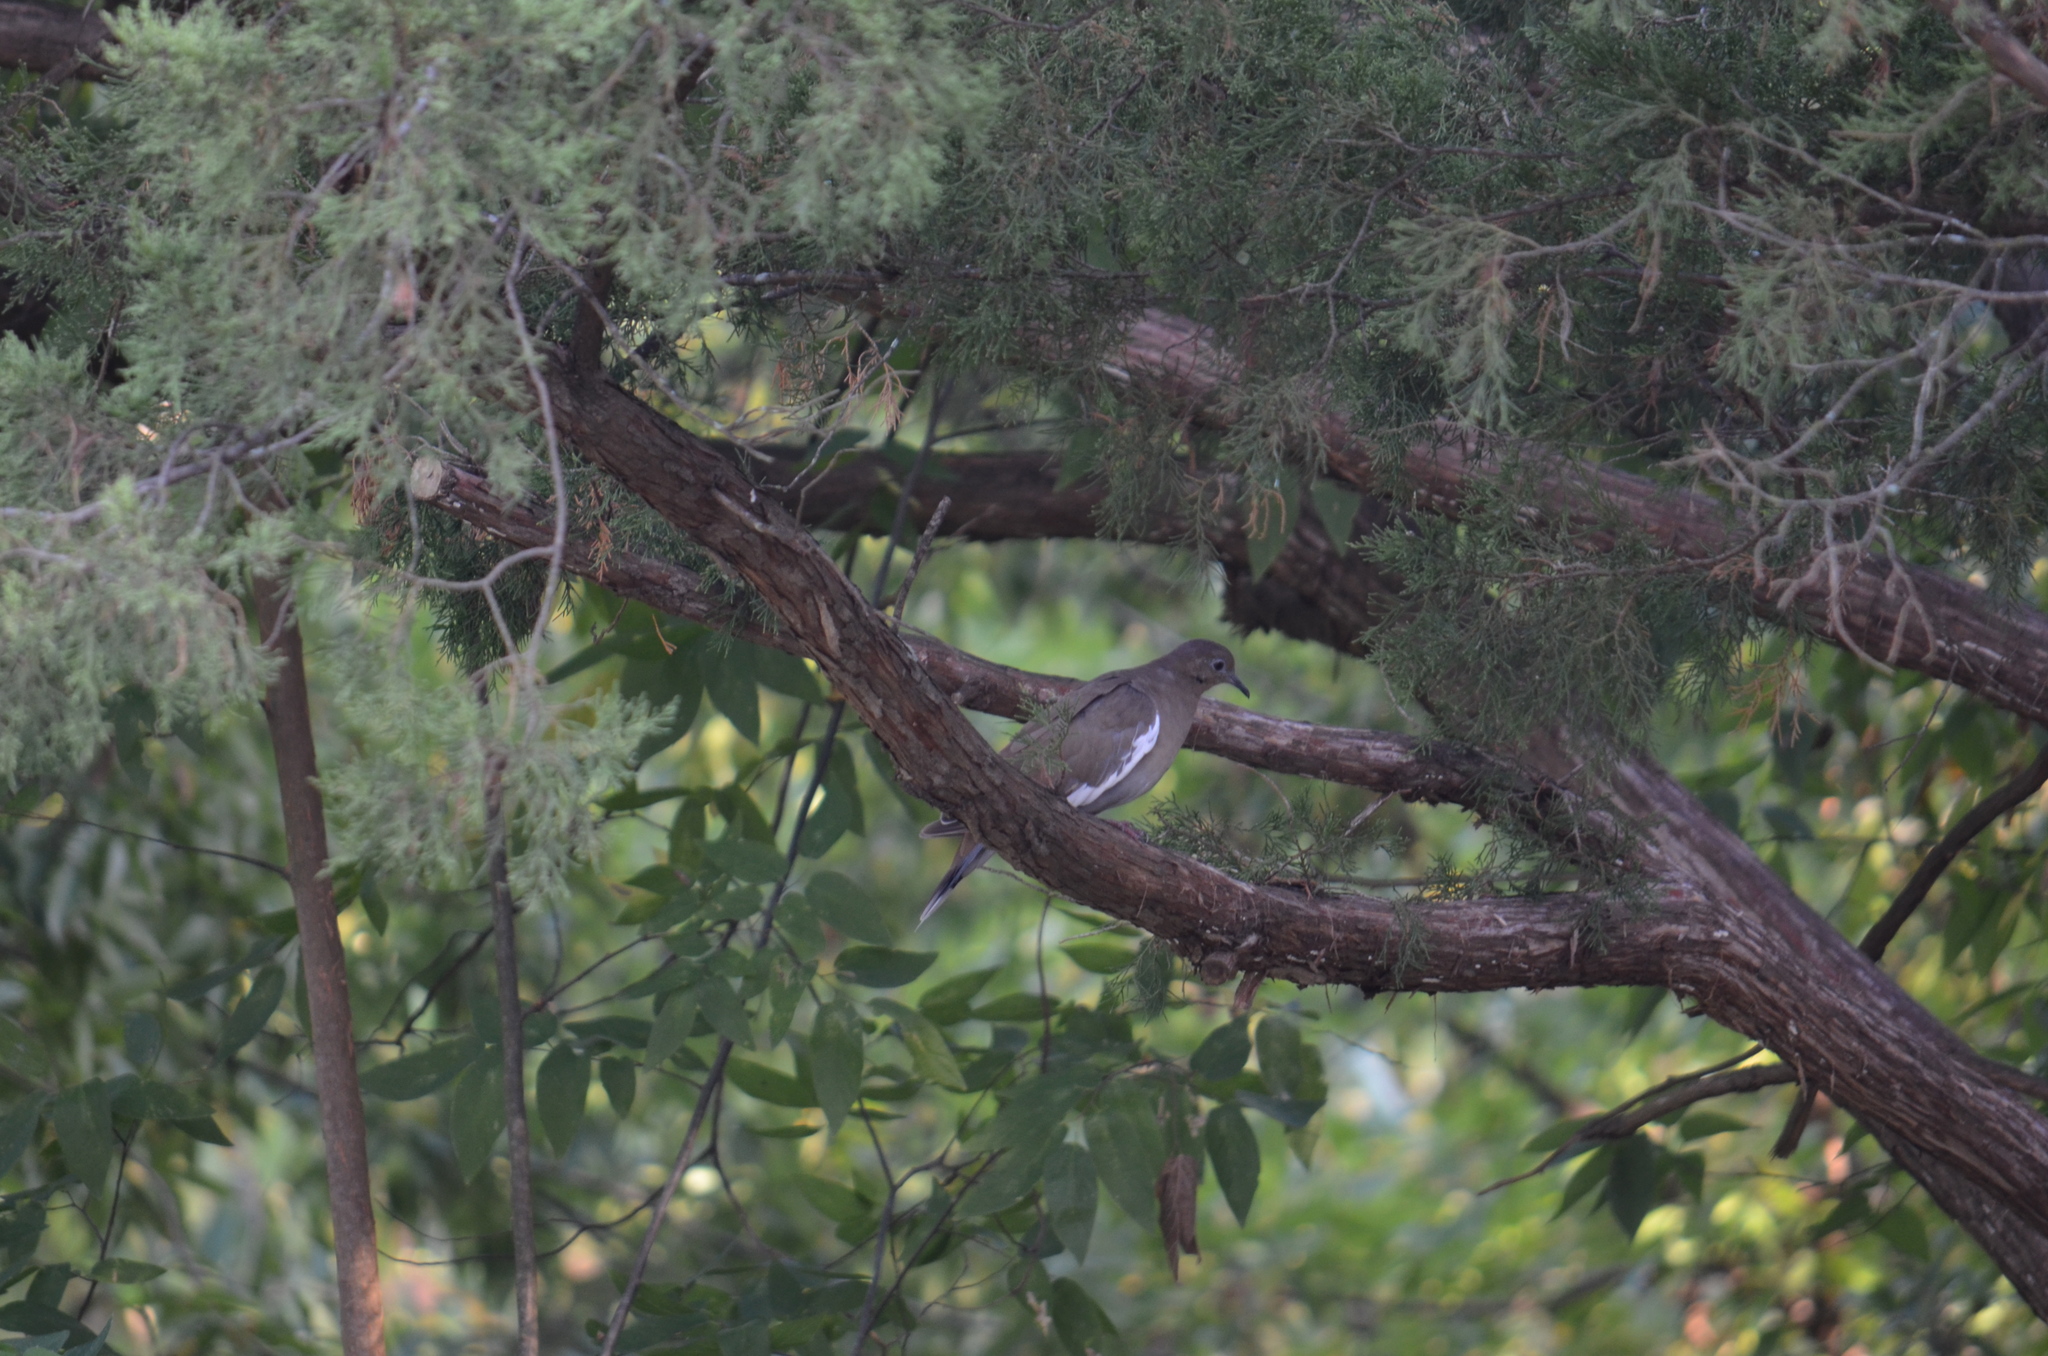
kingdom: Animalia
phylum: Chordata
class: Aves
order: Columbiformes
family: Columbidae
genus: Zenaida
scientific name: Zenaida asiatica
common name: White-winged dove
